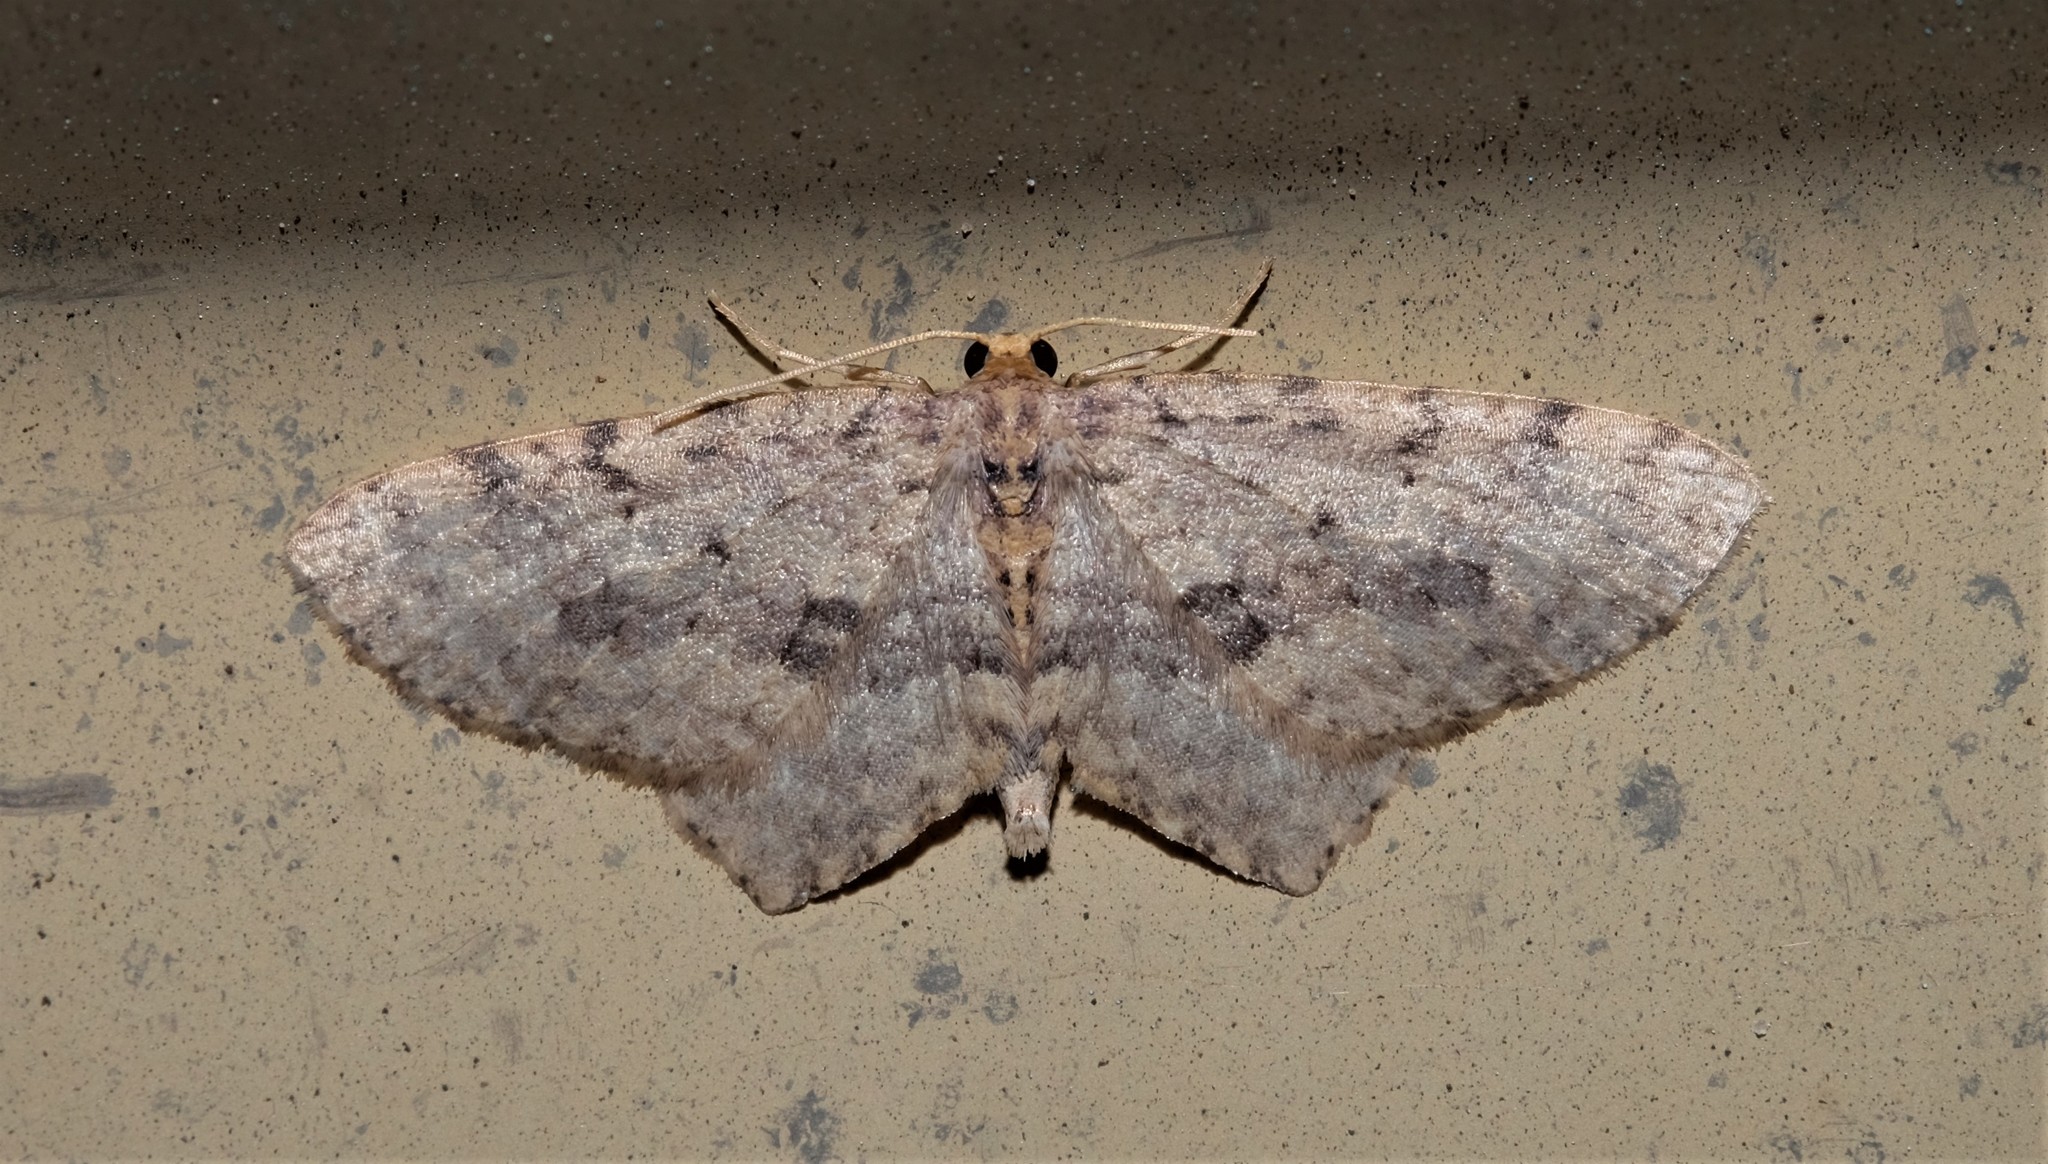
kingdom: Animalia
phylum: Arthropoda
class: Insecta
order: Lepidoptera
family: Geometridae
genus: Poecilasthena
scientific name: Poecilasthena scoliota
